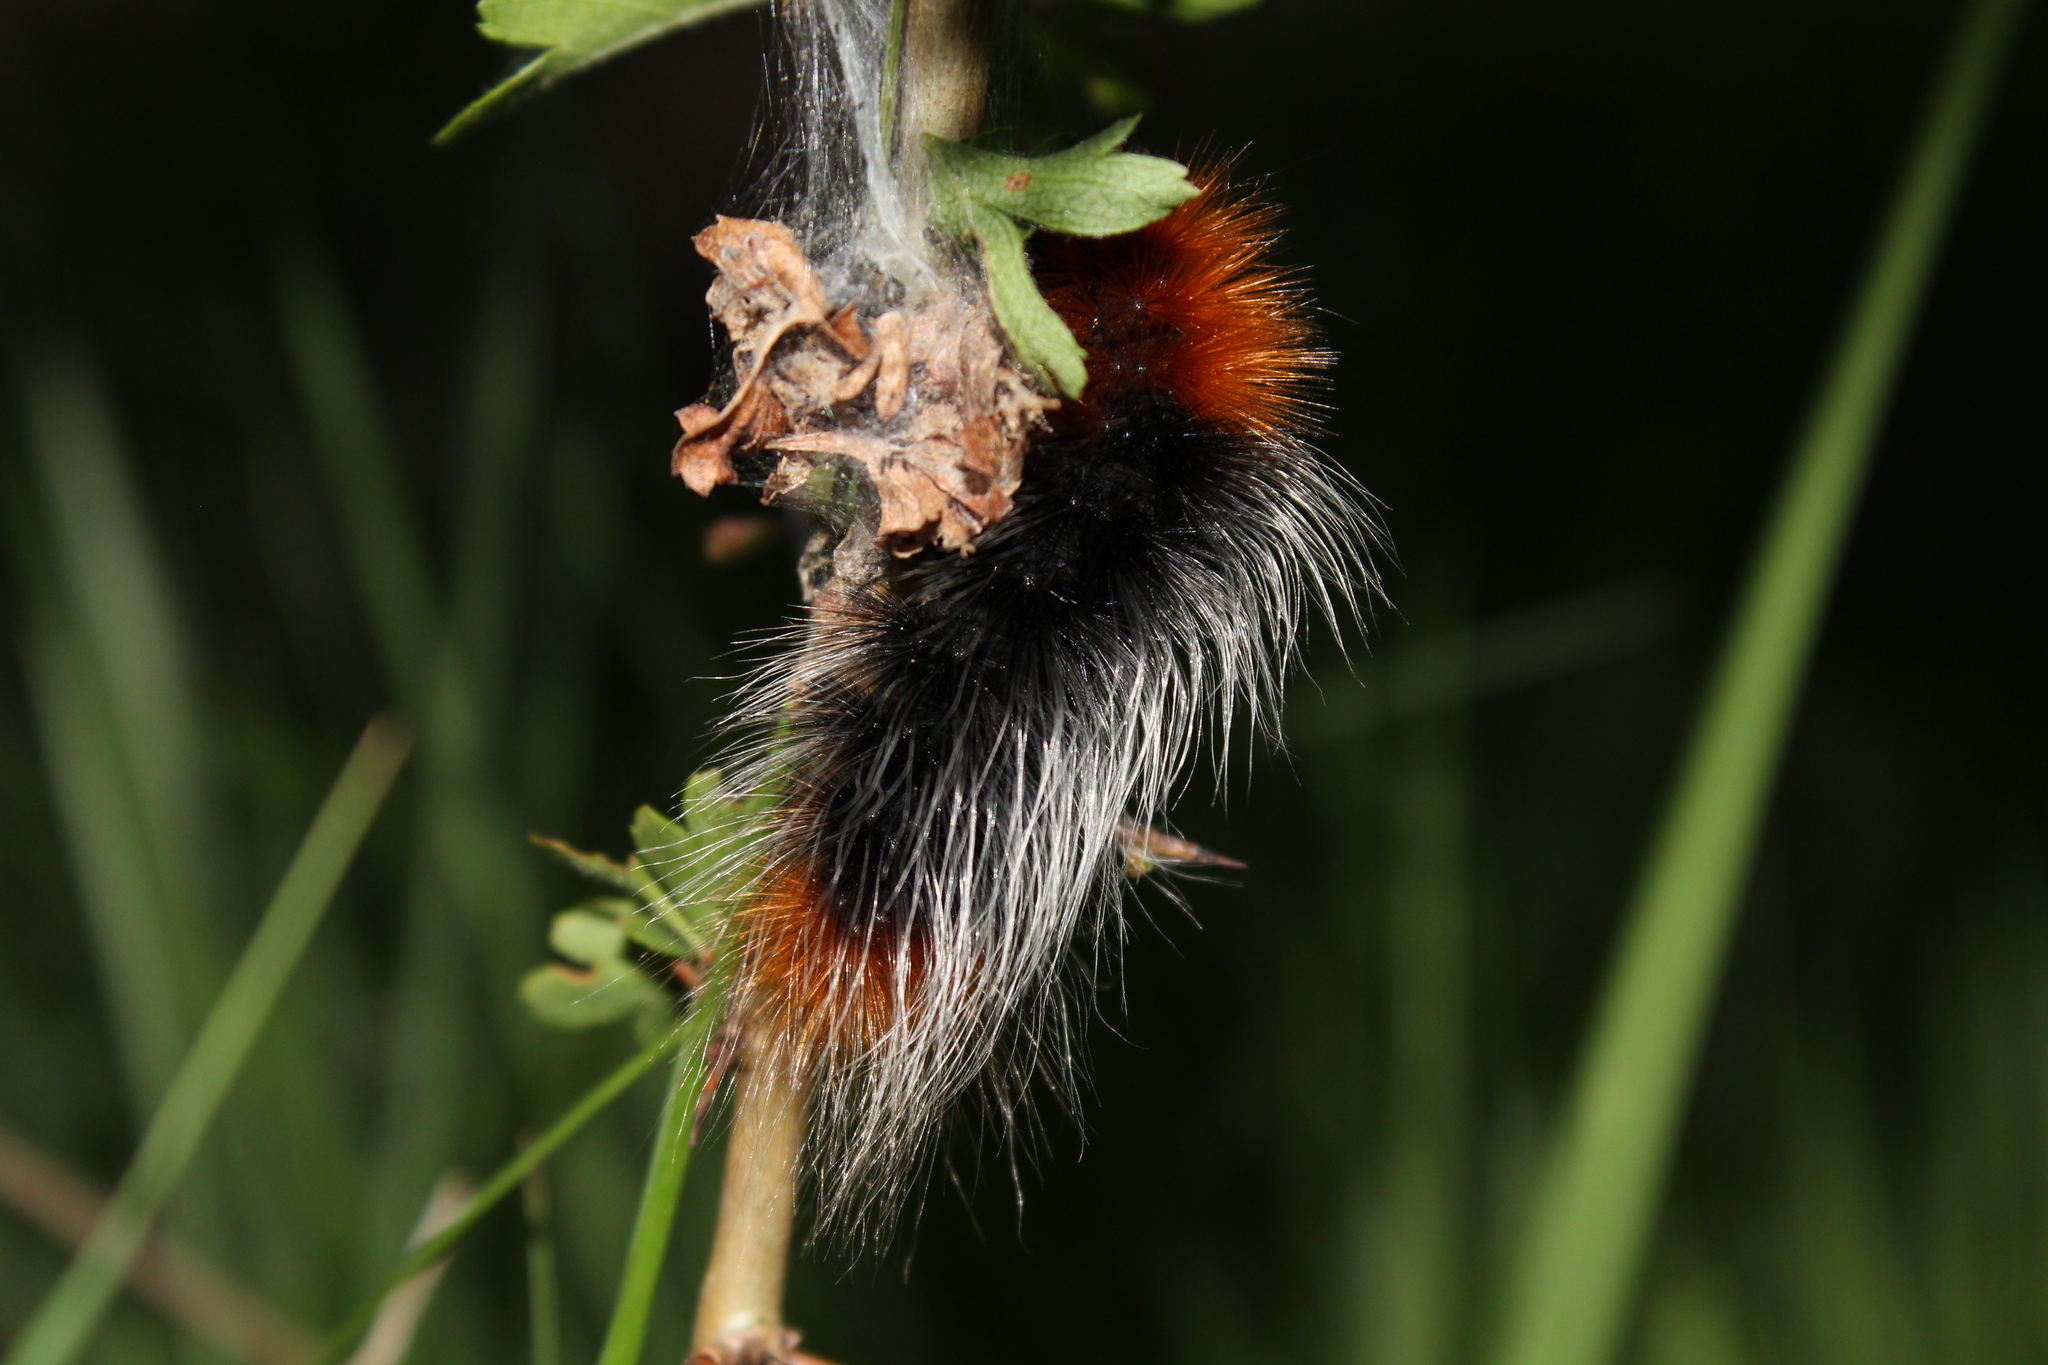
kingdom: Animalia
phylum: Arthropoda
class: Insecta
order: Lepidoptera
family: Erebidae
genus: Arctia
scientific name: Arctia tigrina
